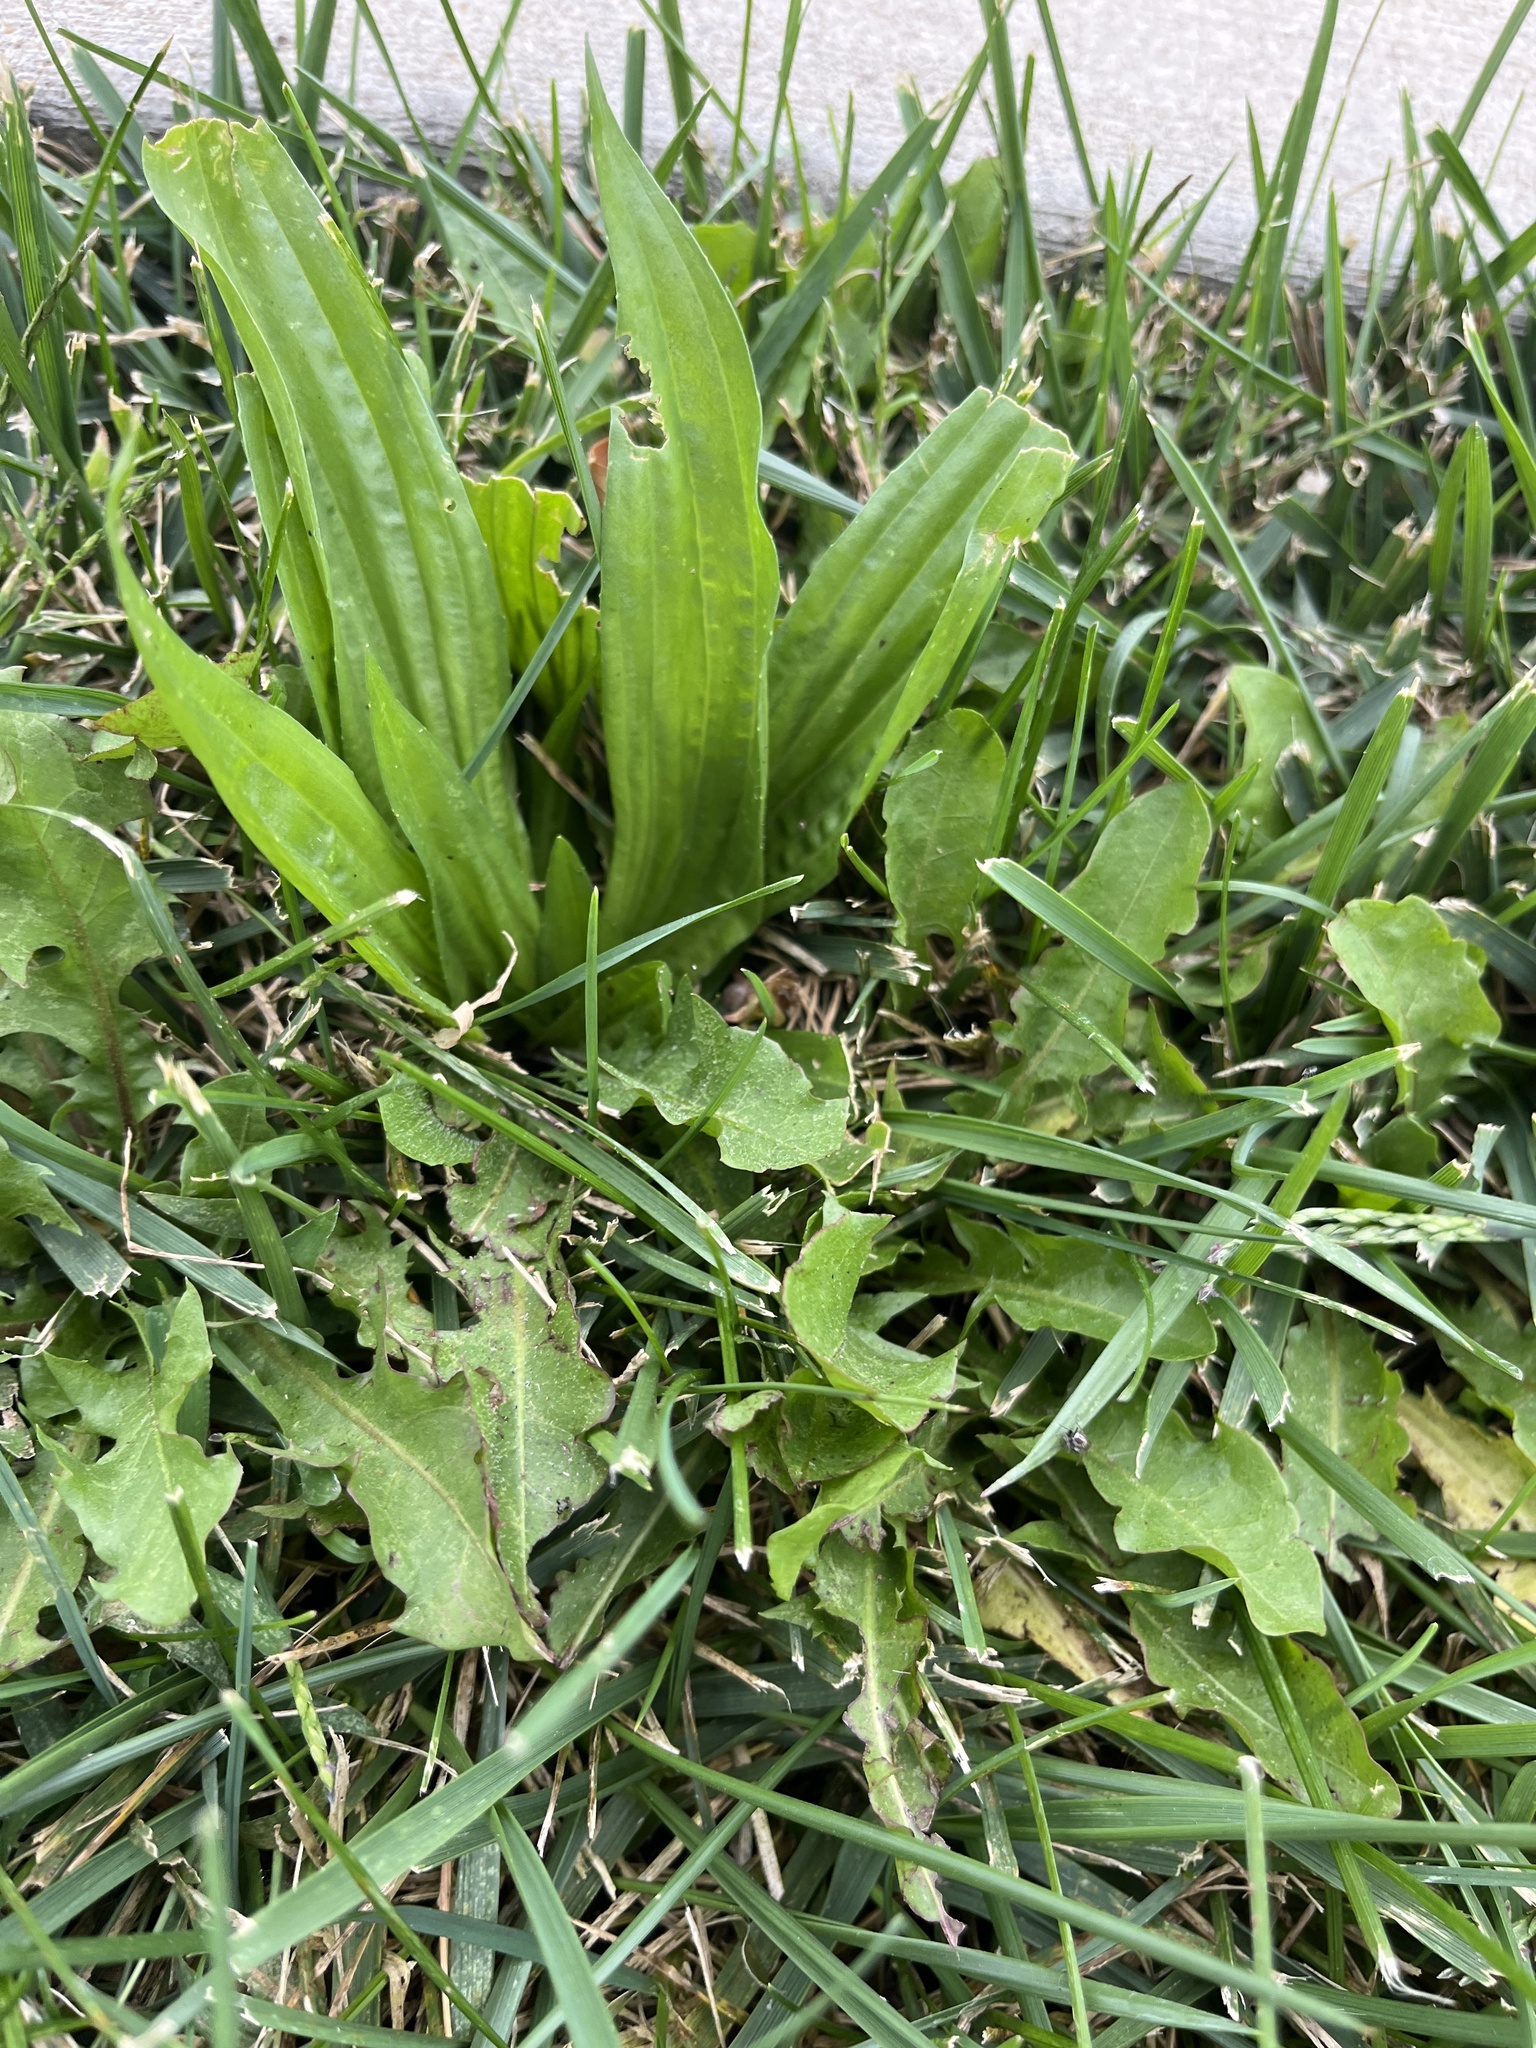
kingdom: Plantae
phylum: Tracheophyta
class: Magnoliopsida
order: Lamiales
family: Plantaginaceae
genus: Plantago
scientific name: Plantago lanceolata
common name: Ribwort plantain
